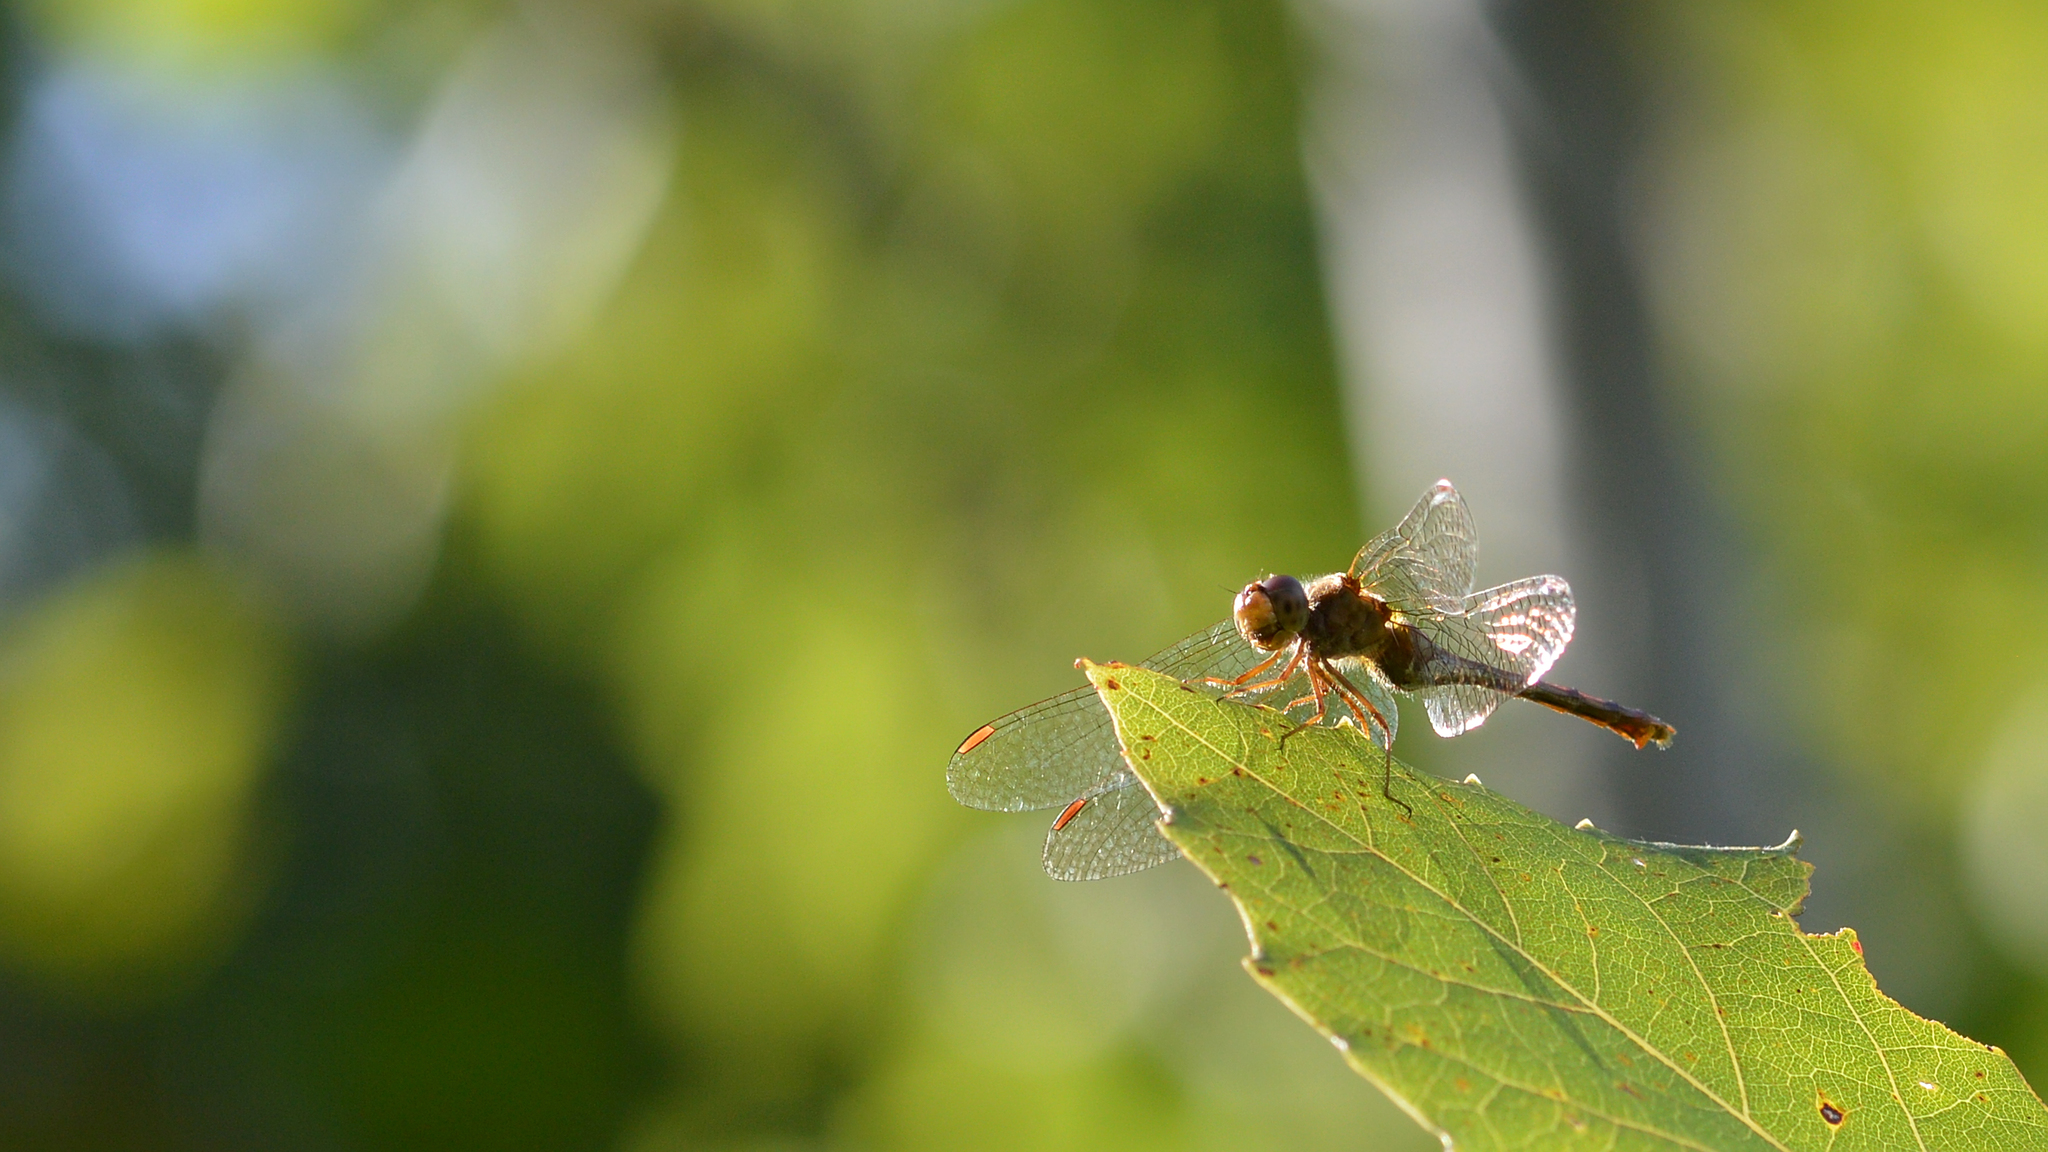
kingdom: Animalia
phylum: Arthropoda
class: Insecta
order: Odonata
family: Libellulidae
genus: Sympetrum
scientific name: Sympetrum vicinum
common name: Autumn meadowhawk
